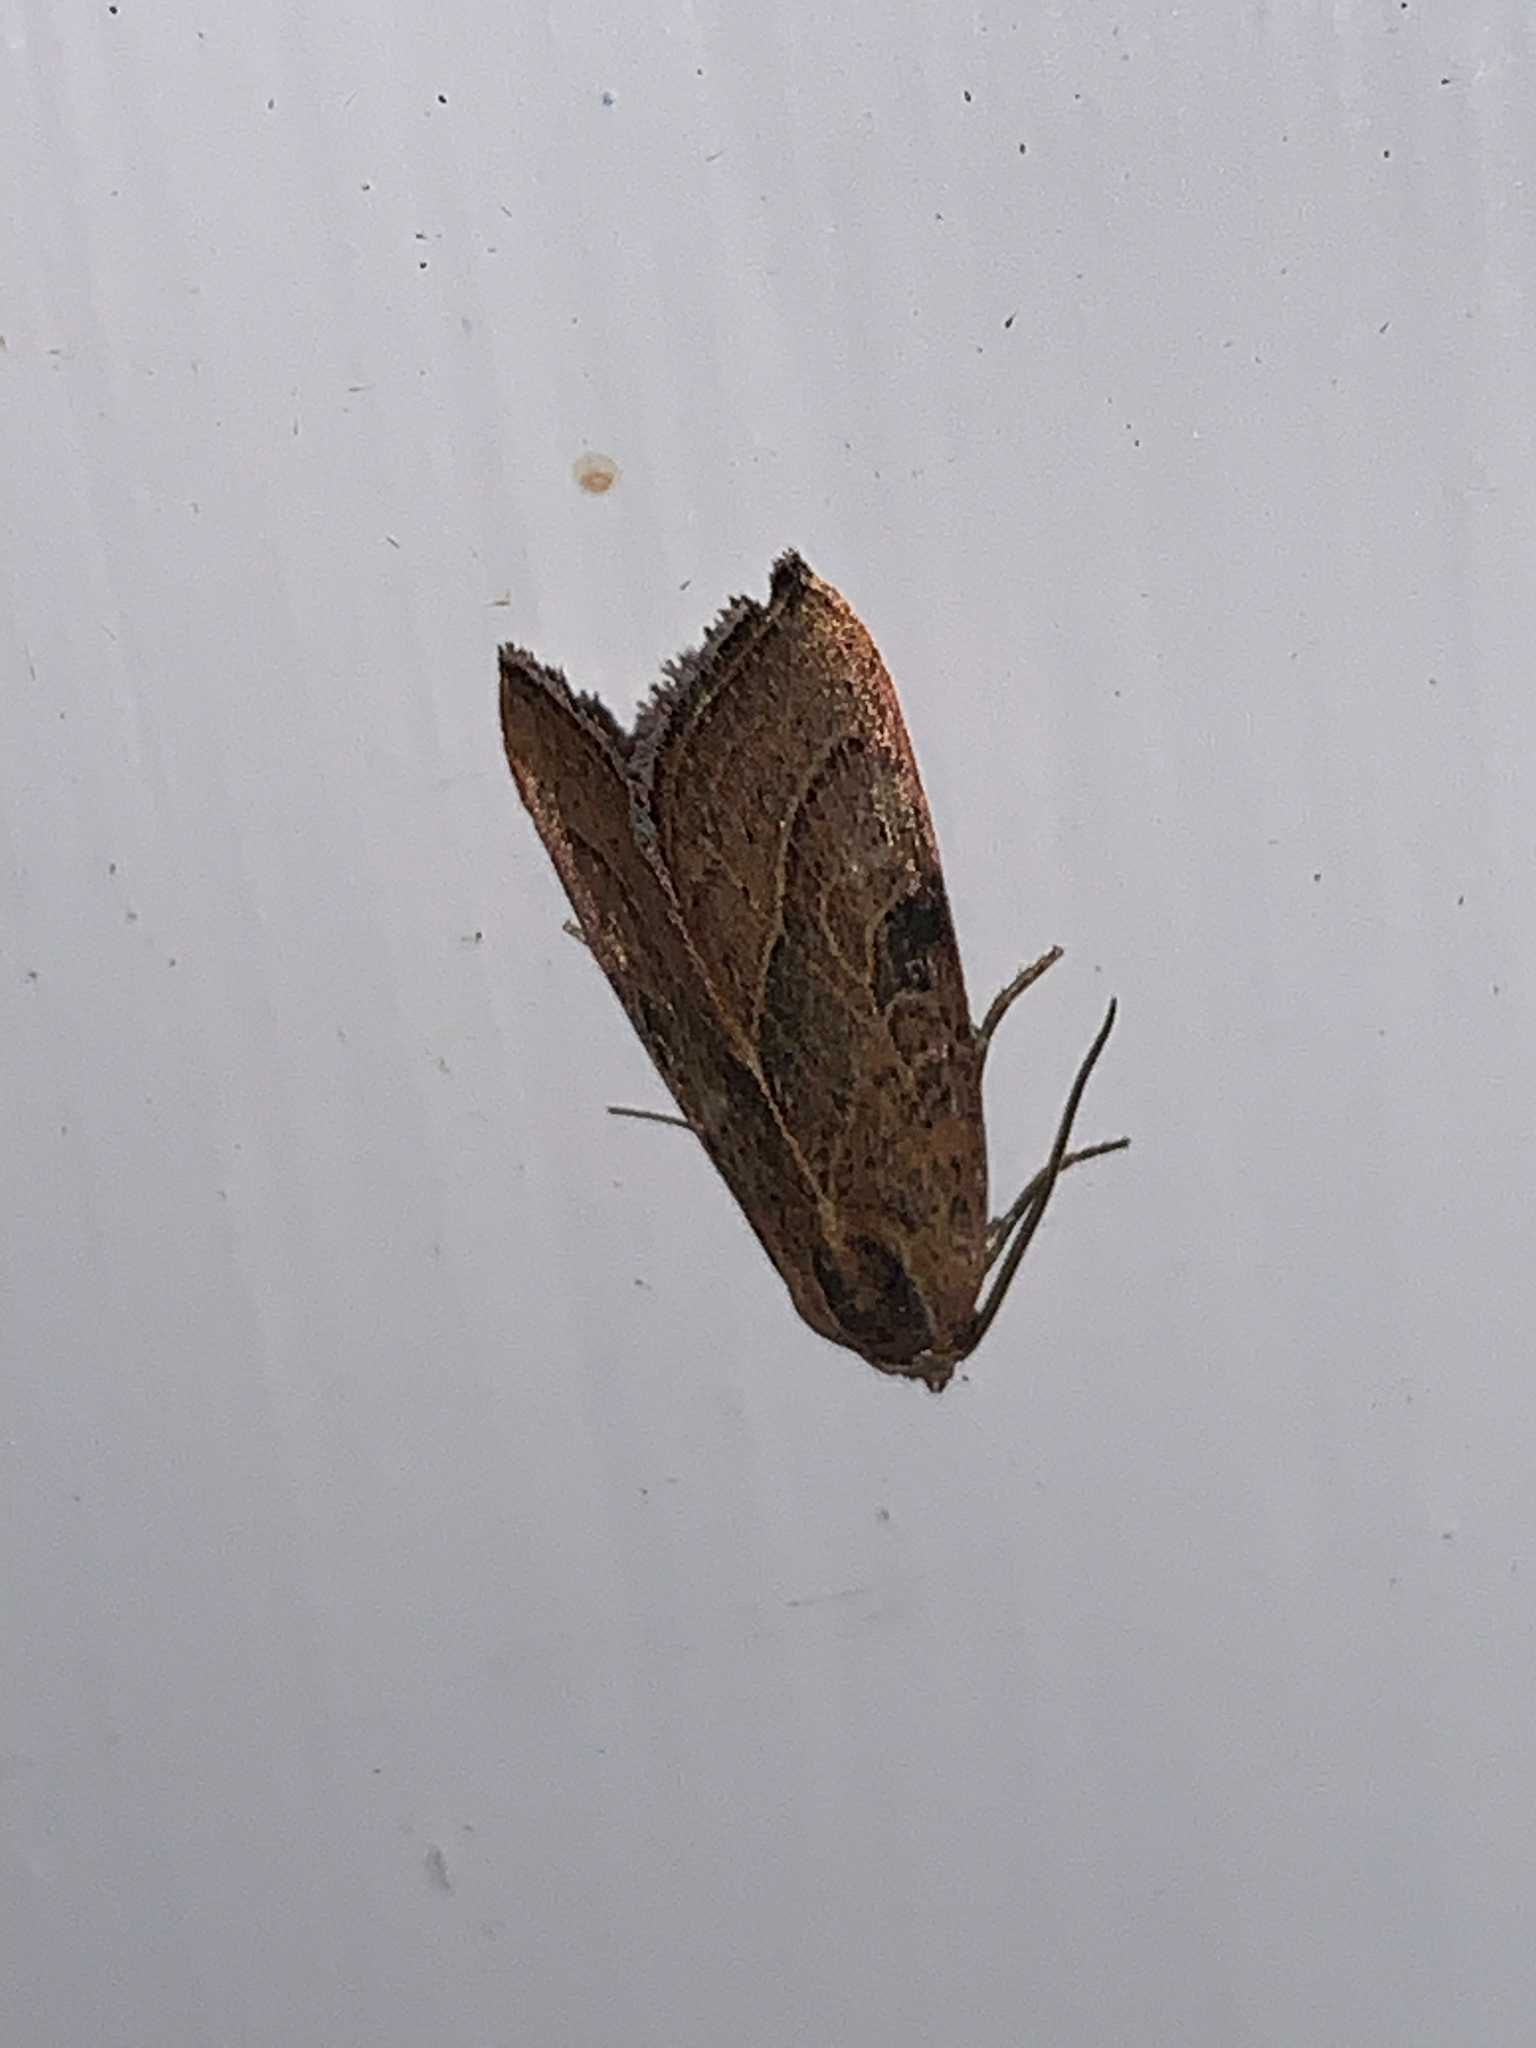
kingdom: Animalia
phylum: Arthropoda
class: Insecta
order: Lepidoptera
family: Noctuidae
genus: Galgula
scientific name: Galgula partita
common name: Wedgeling
